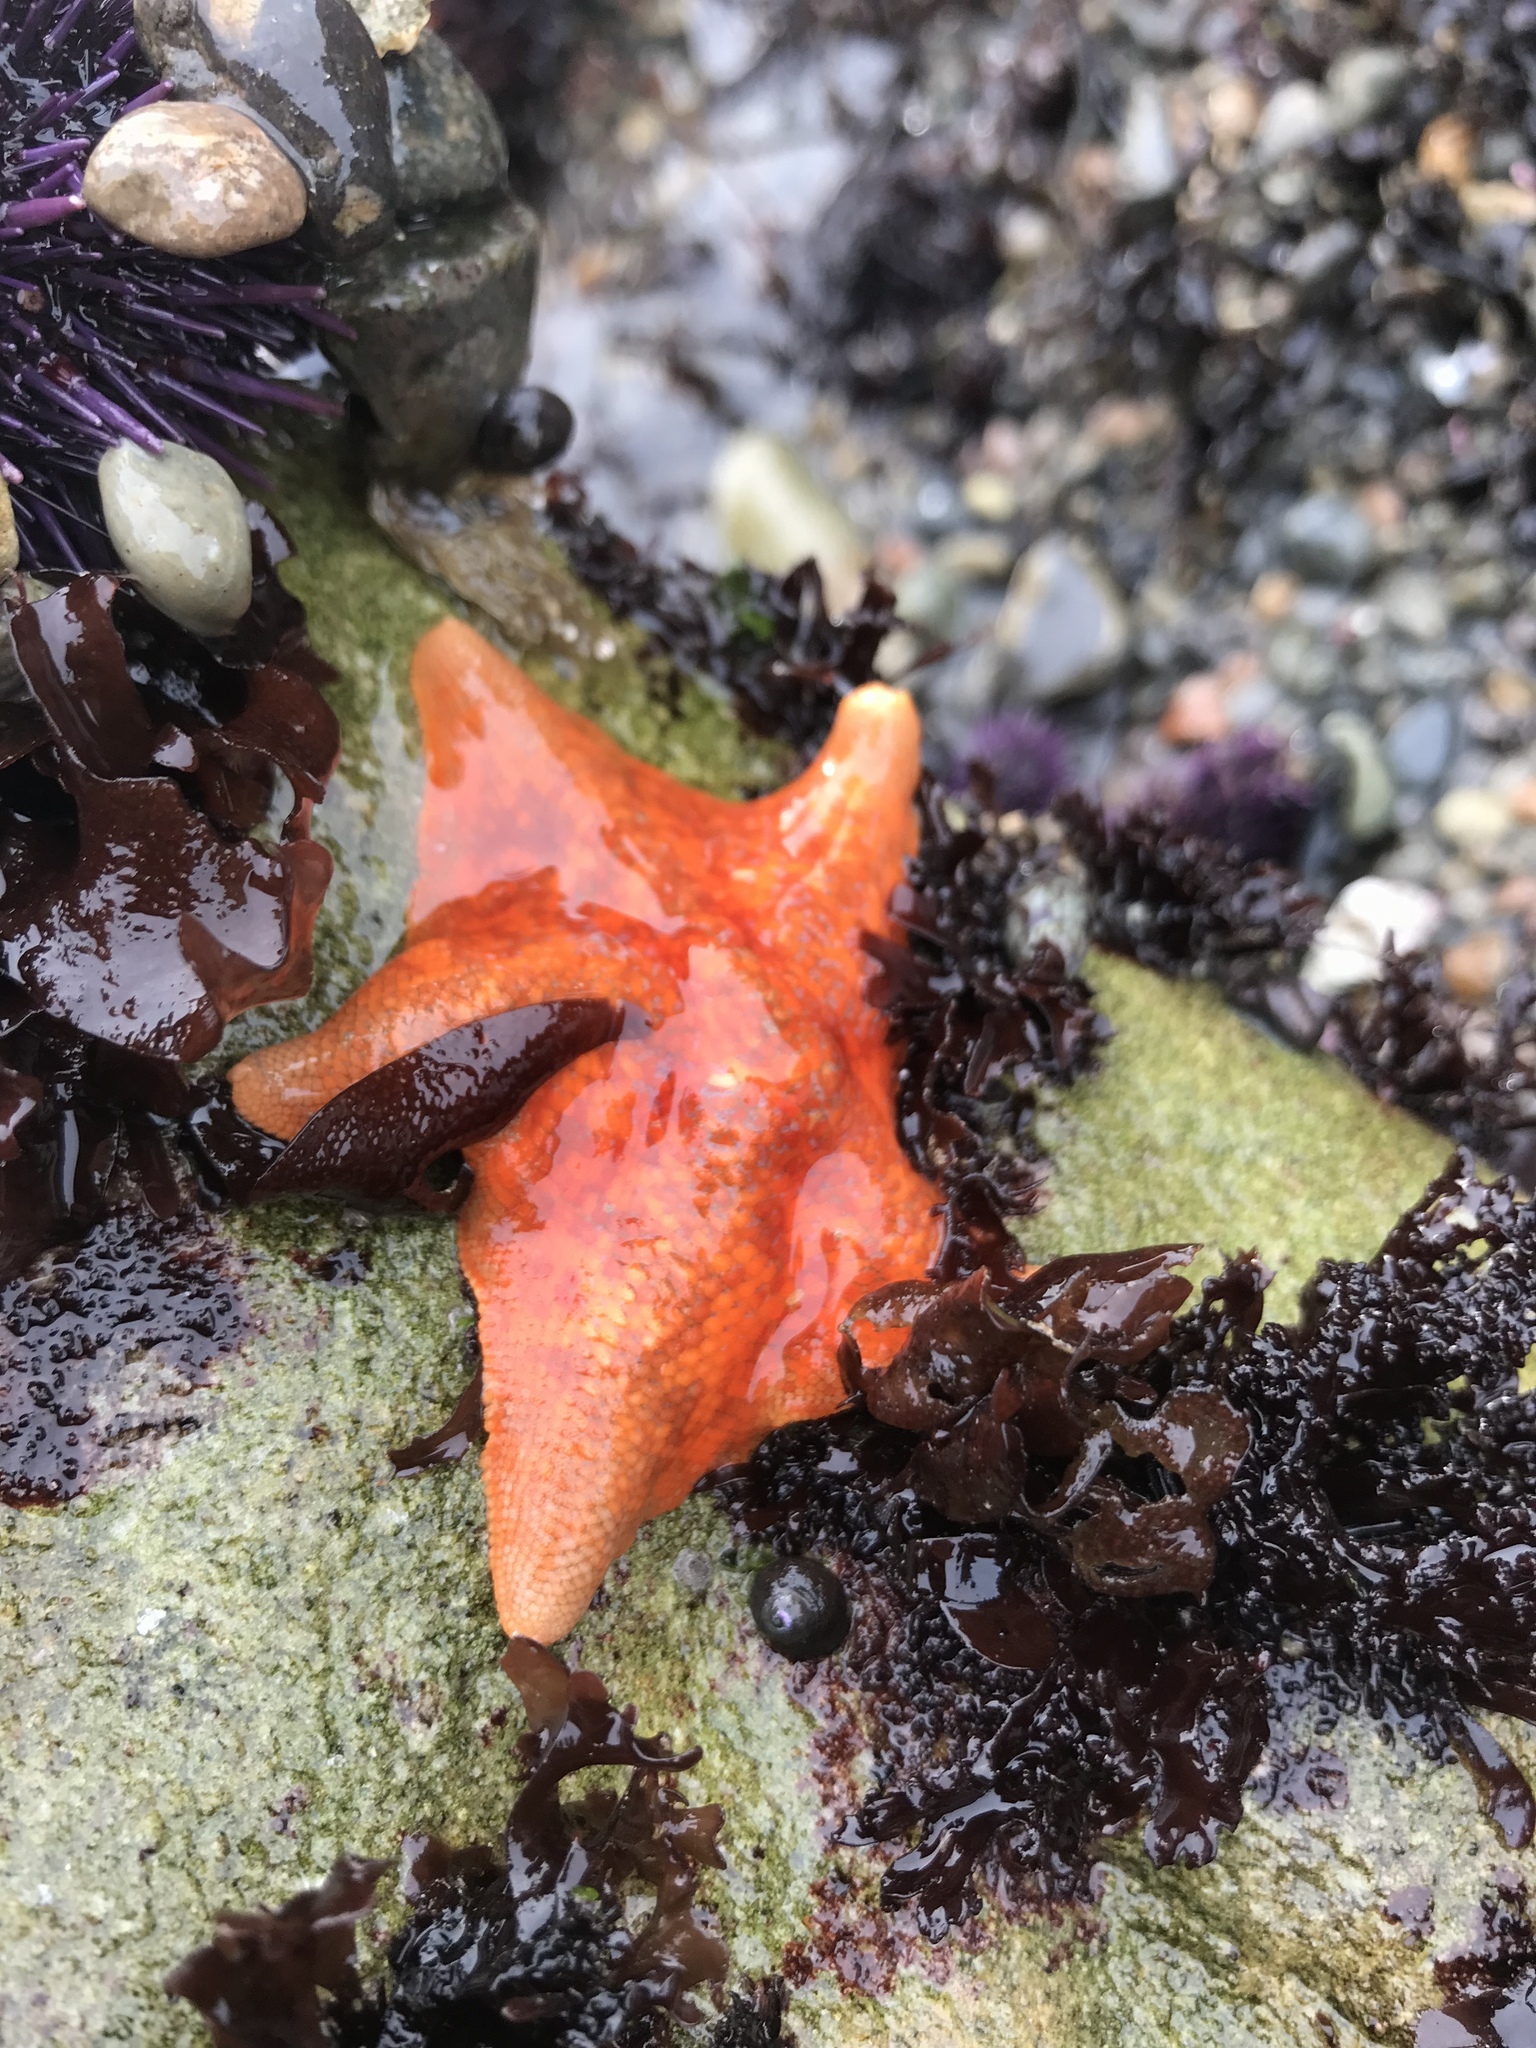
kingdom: Animalia
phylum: Echinodermata
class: Asteroidea
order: Valvatida
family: Asterinidae
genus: Patiria
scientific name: Patiria miniata
